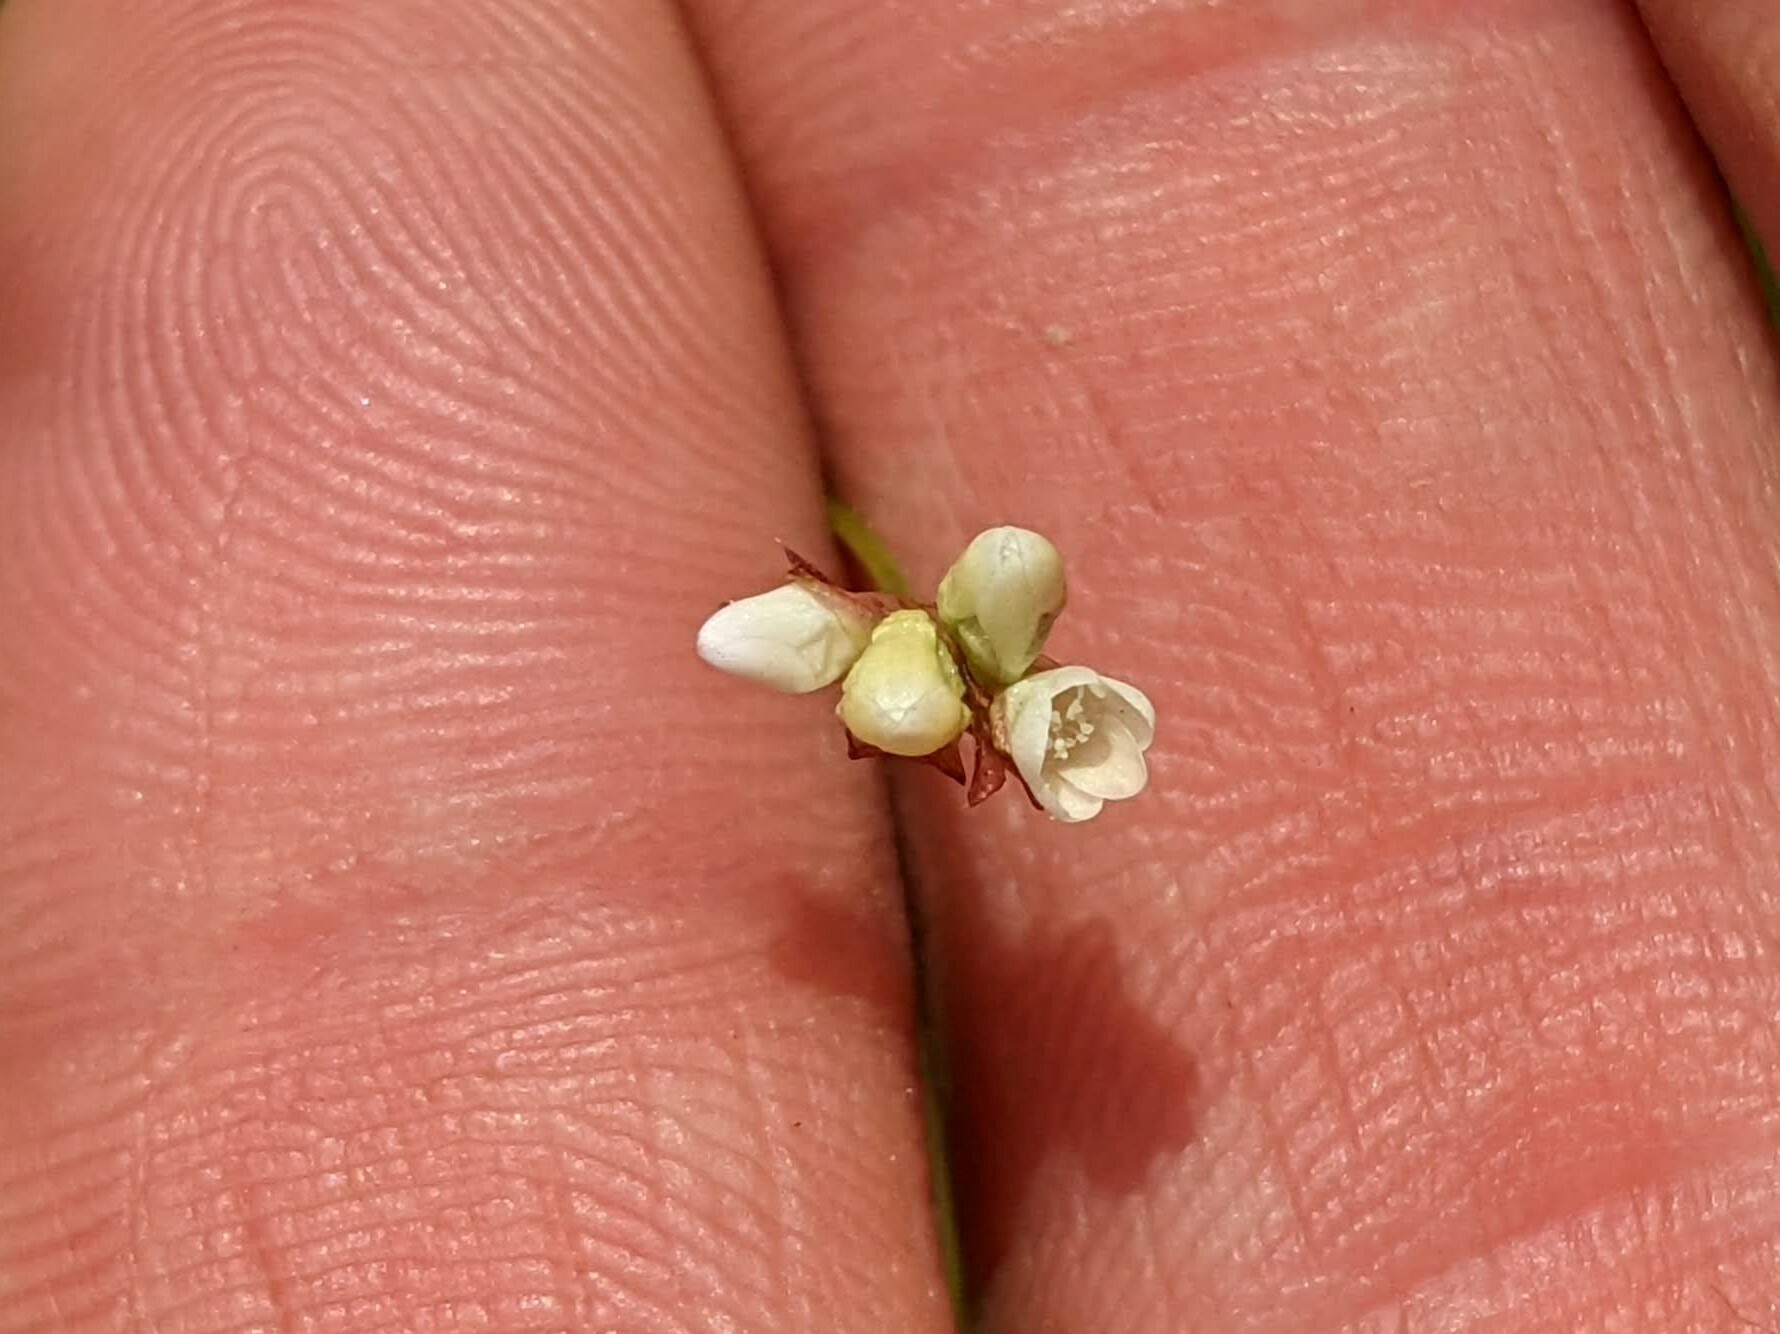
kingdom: Plantae
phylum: Tracheophyta
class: Magnoliopsida
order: Caryophyllales
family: Polygonaceae
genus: Persicaria
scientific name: Persicaria sagittata
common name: American tearthumb
